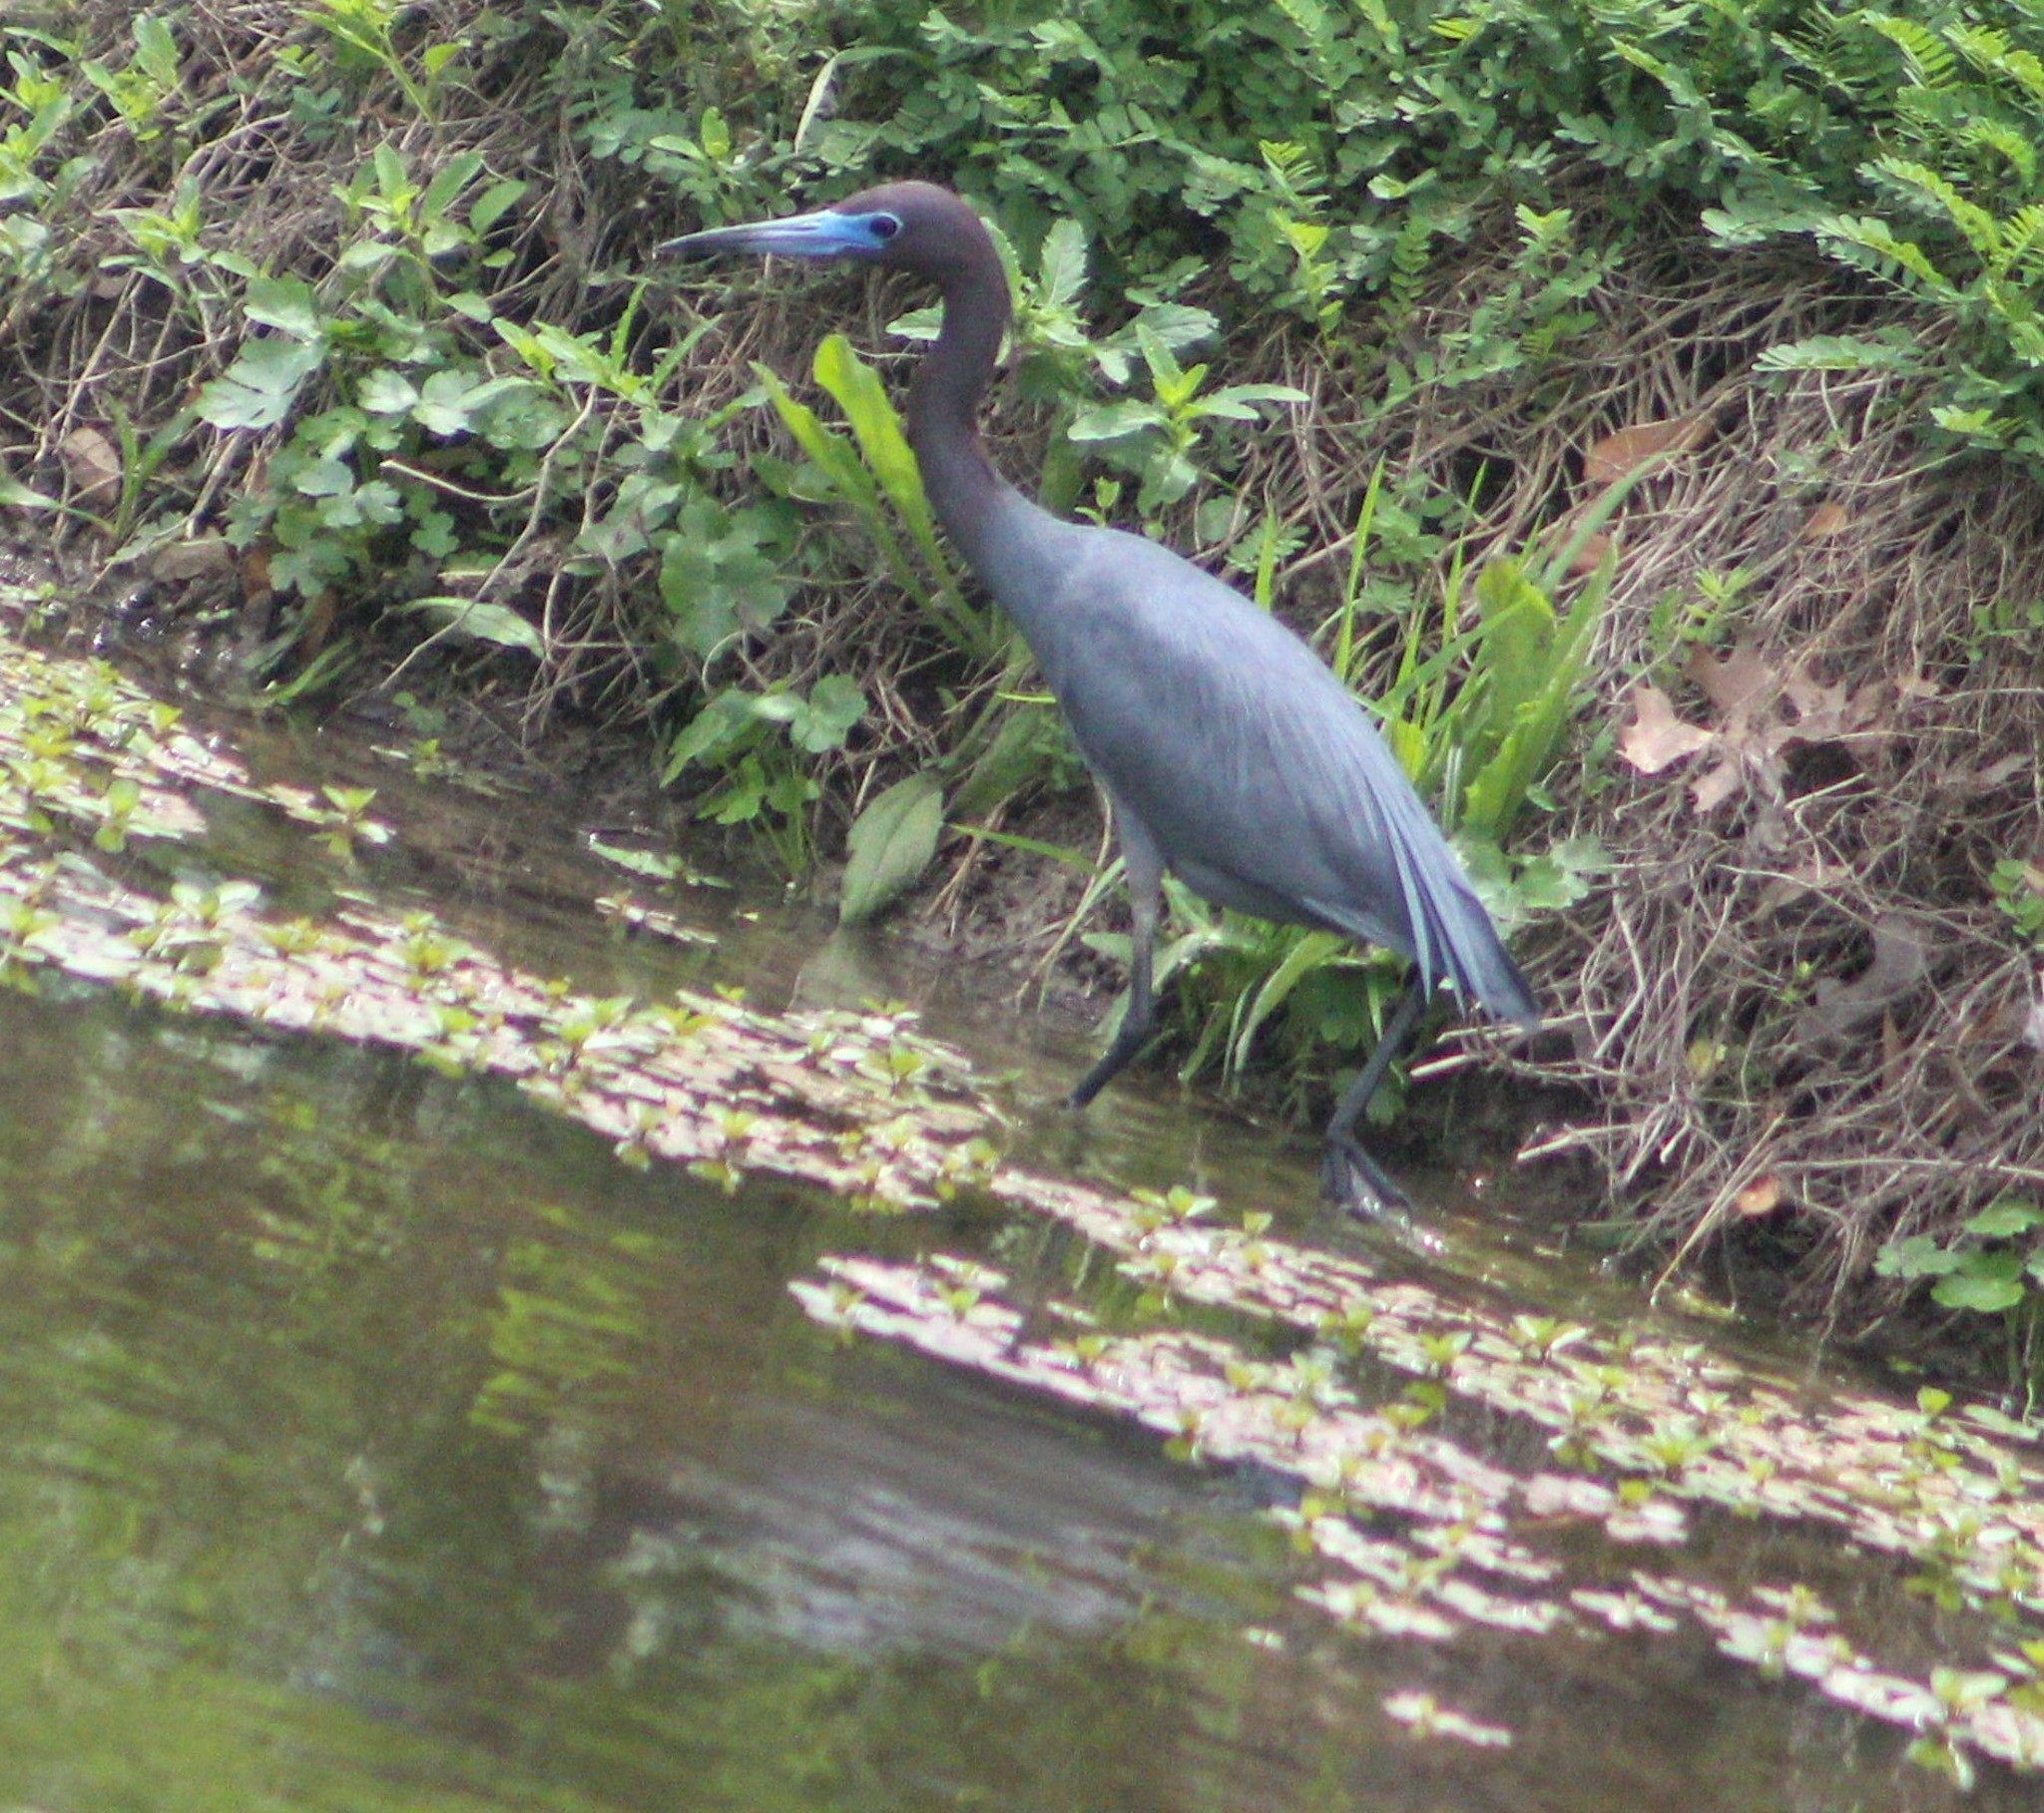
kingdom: Animalia
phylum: Chordata
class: Aves
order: Pelecaniformes
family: Ardeidae
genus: Egretta
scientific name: Egretta caerulea
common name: Little blue heron
